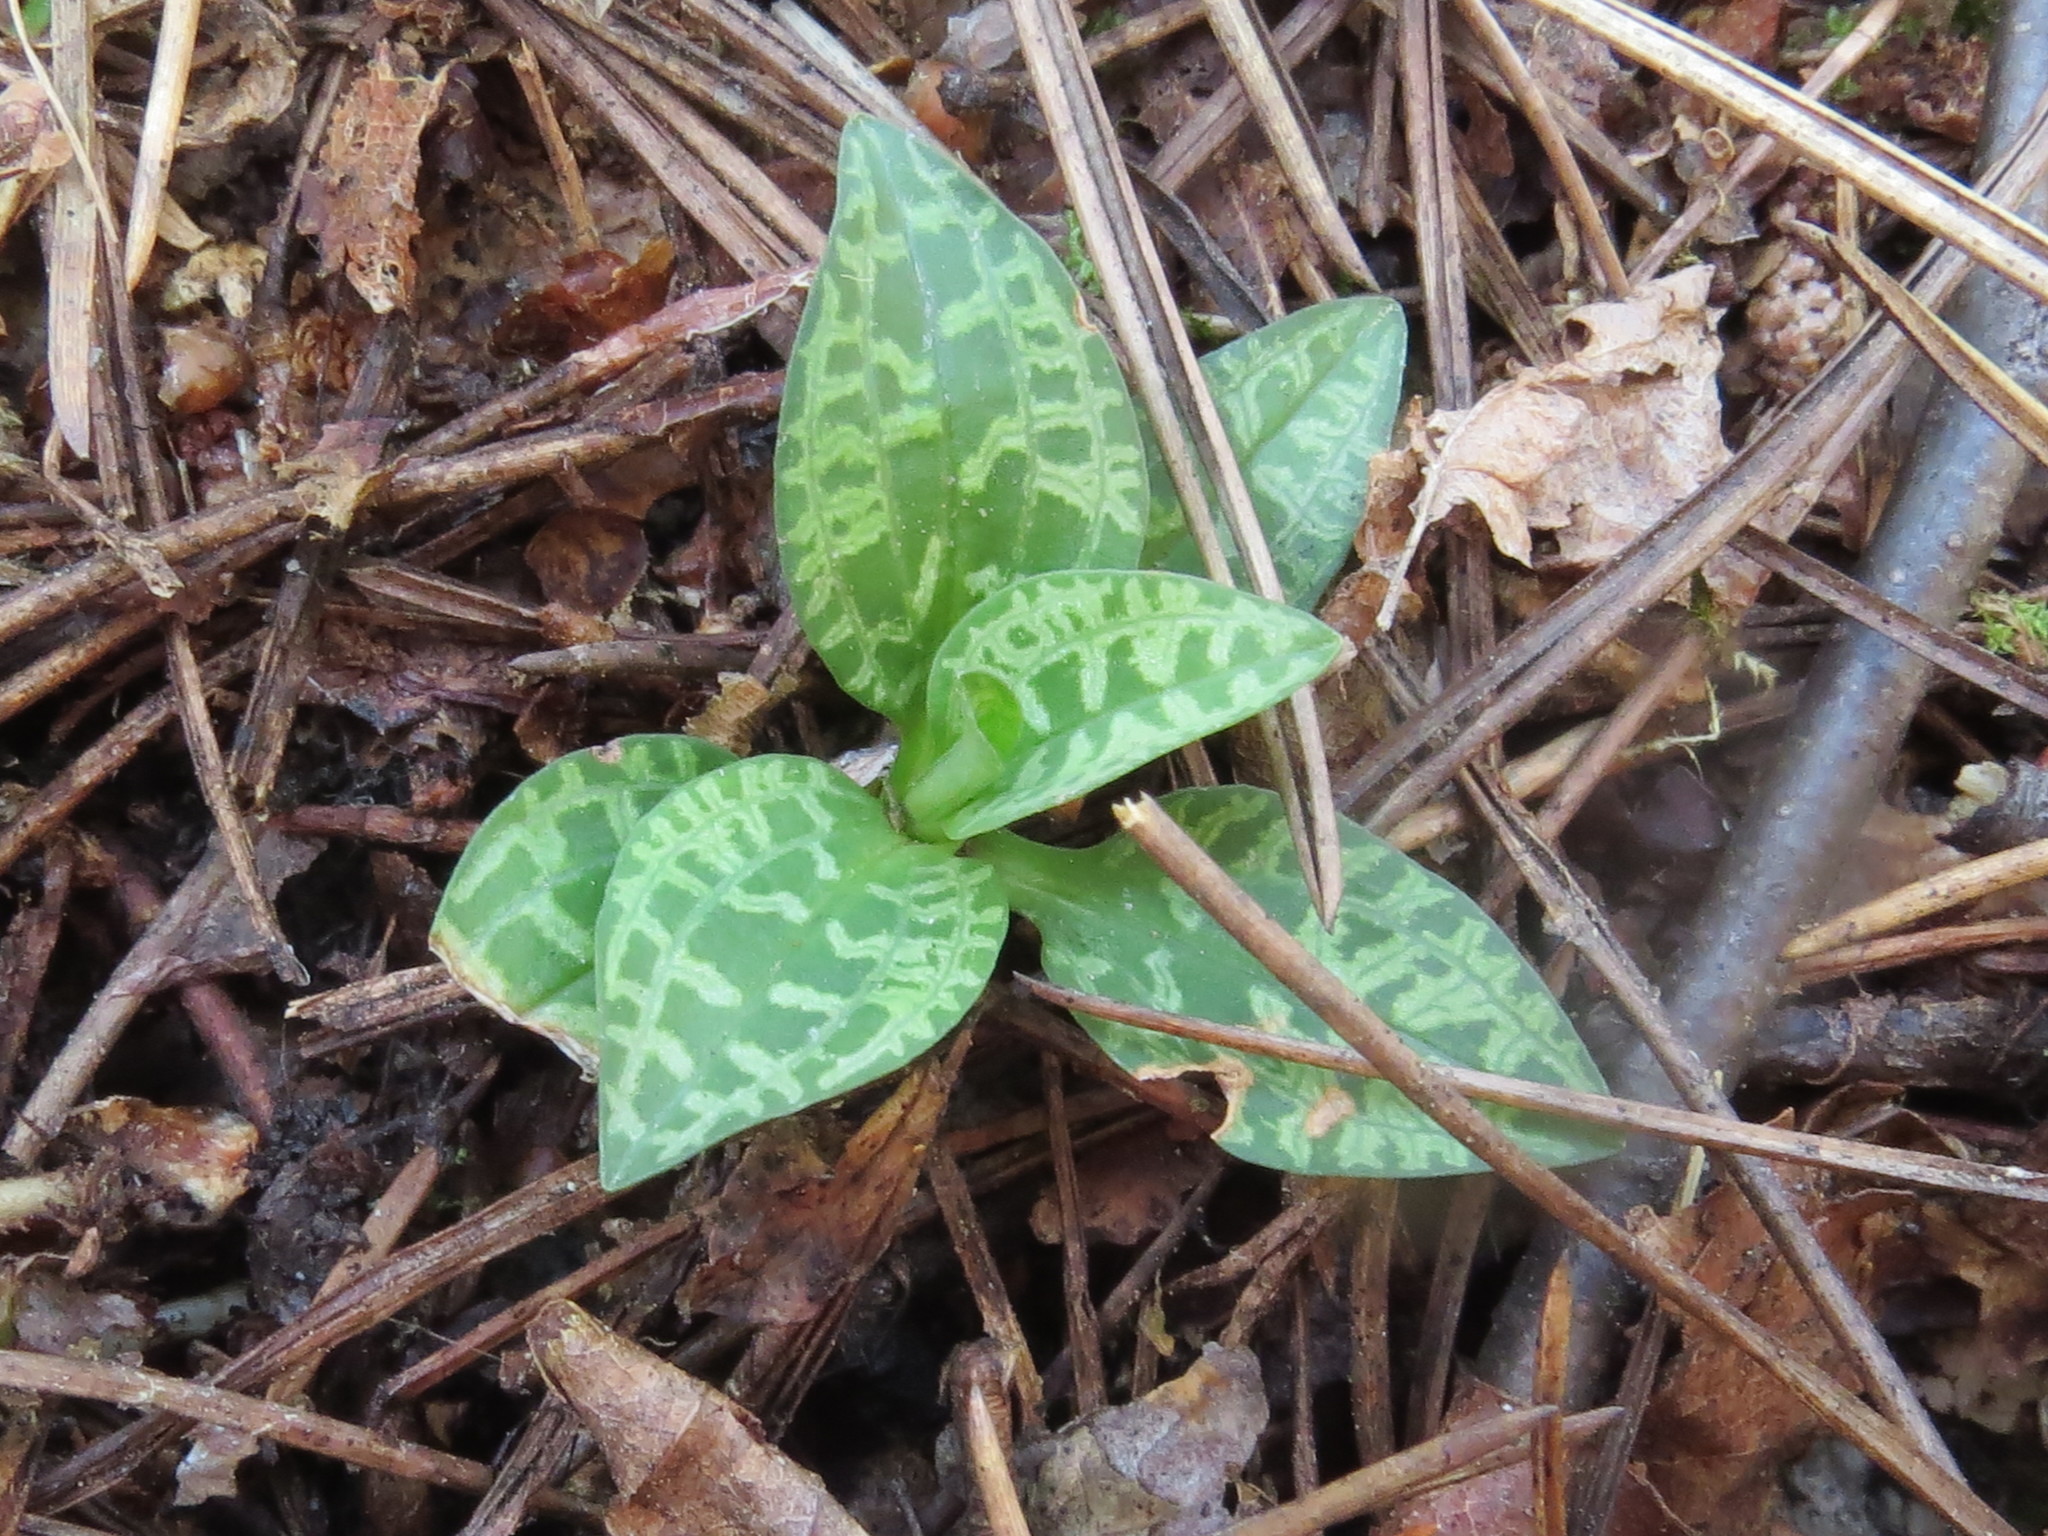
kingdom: Plantae
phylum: Tracheophyta
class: Liliopsida
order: Asparagales
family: Orchidaceae
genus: Goodyera
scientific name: Goodyera repens
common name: Creeping lady's-tresses
